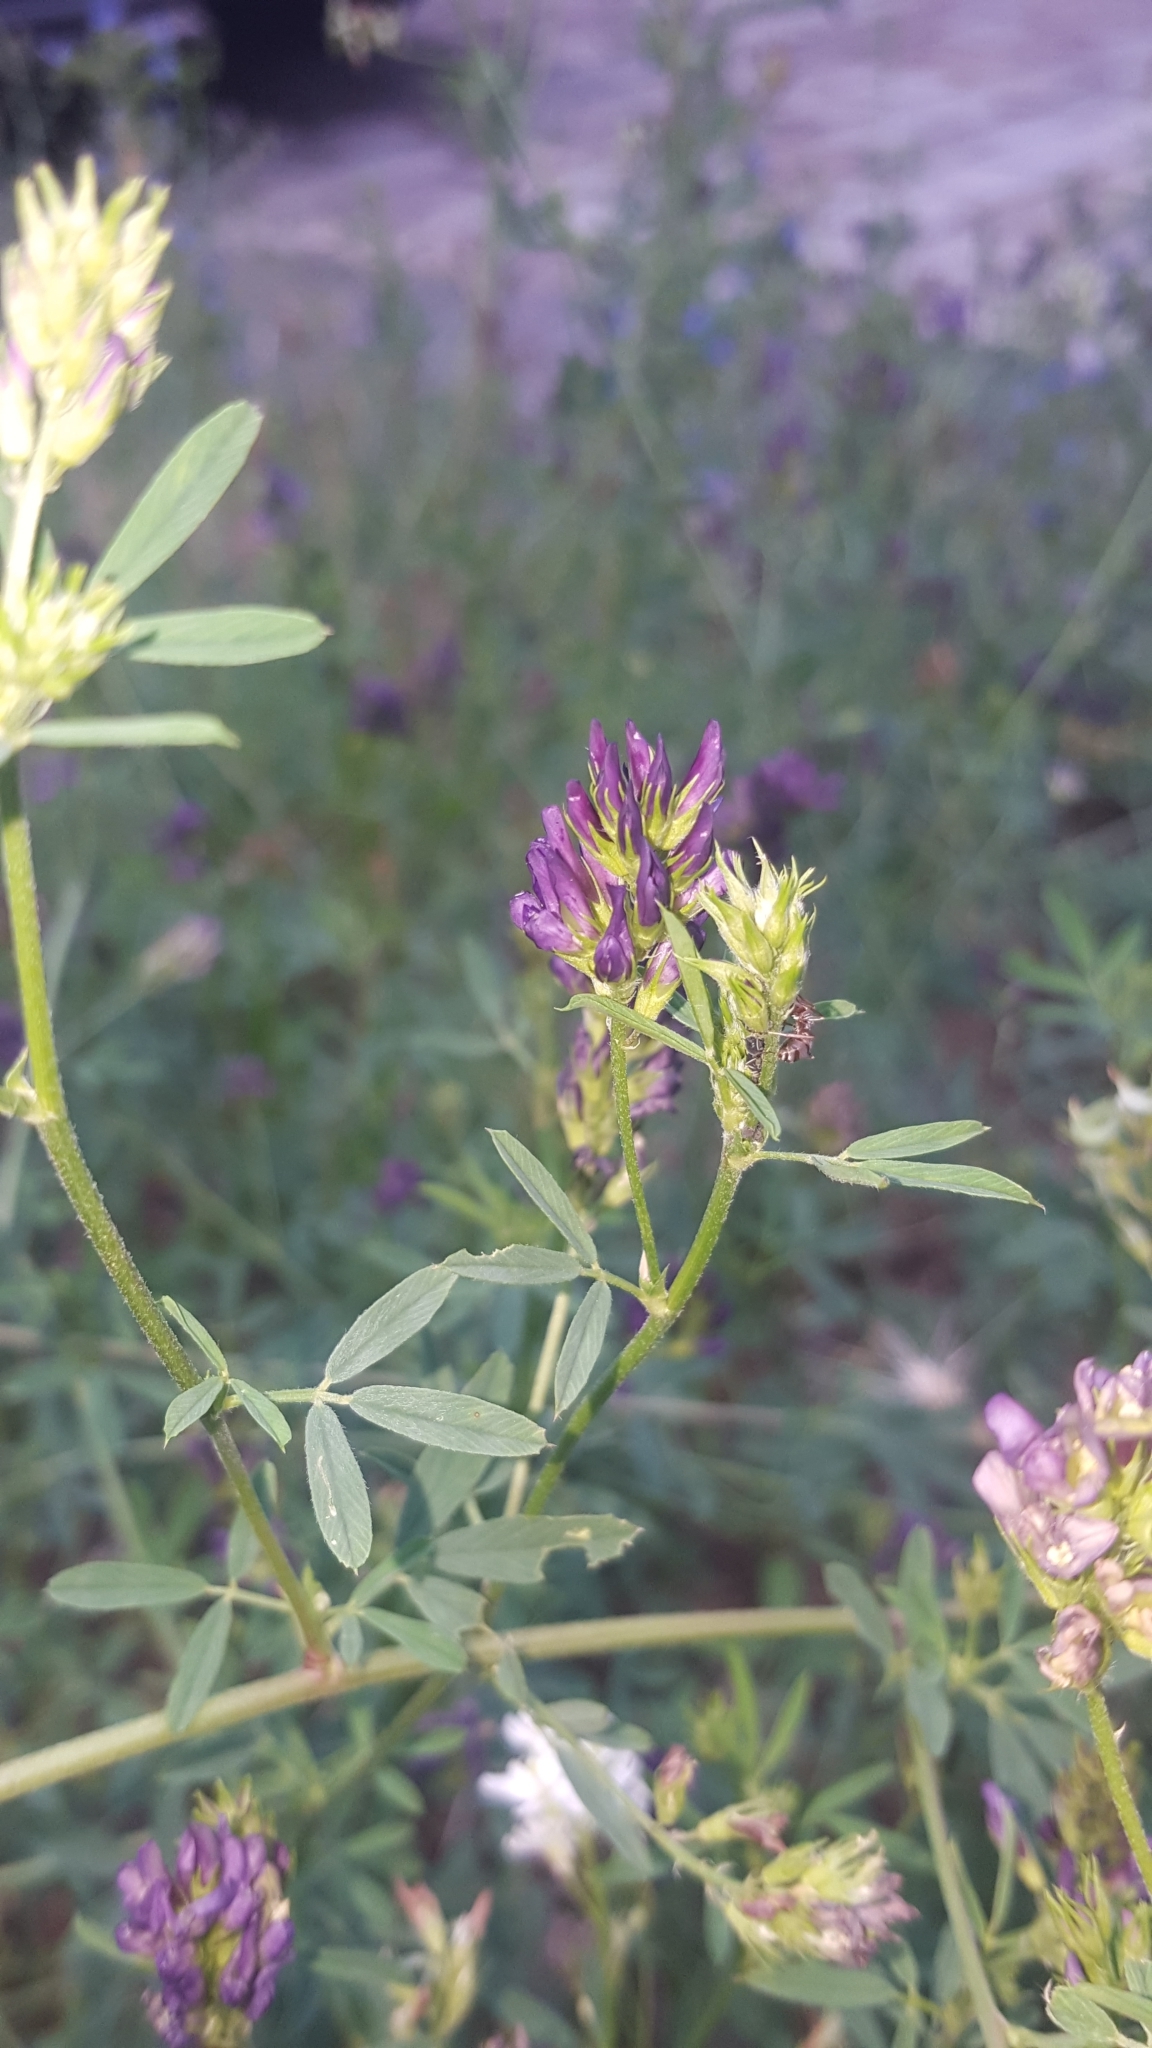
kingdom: Plantae
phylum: Tracheophyta
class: Magnoliopsida
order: Fabales
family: Fabaceae
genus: Medicago
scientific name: Medicago sativa
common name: Alfalfa
